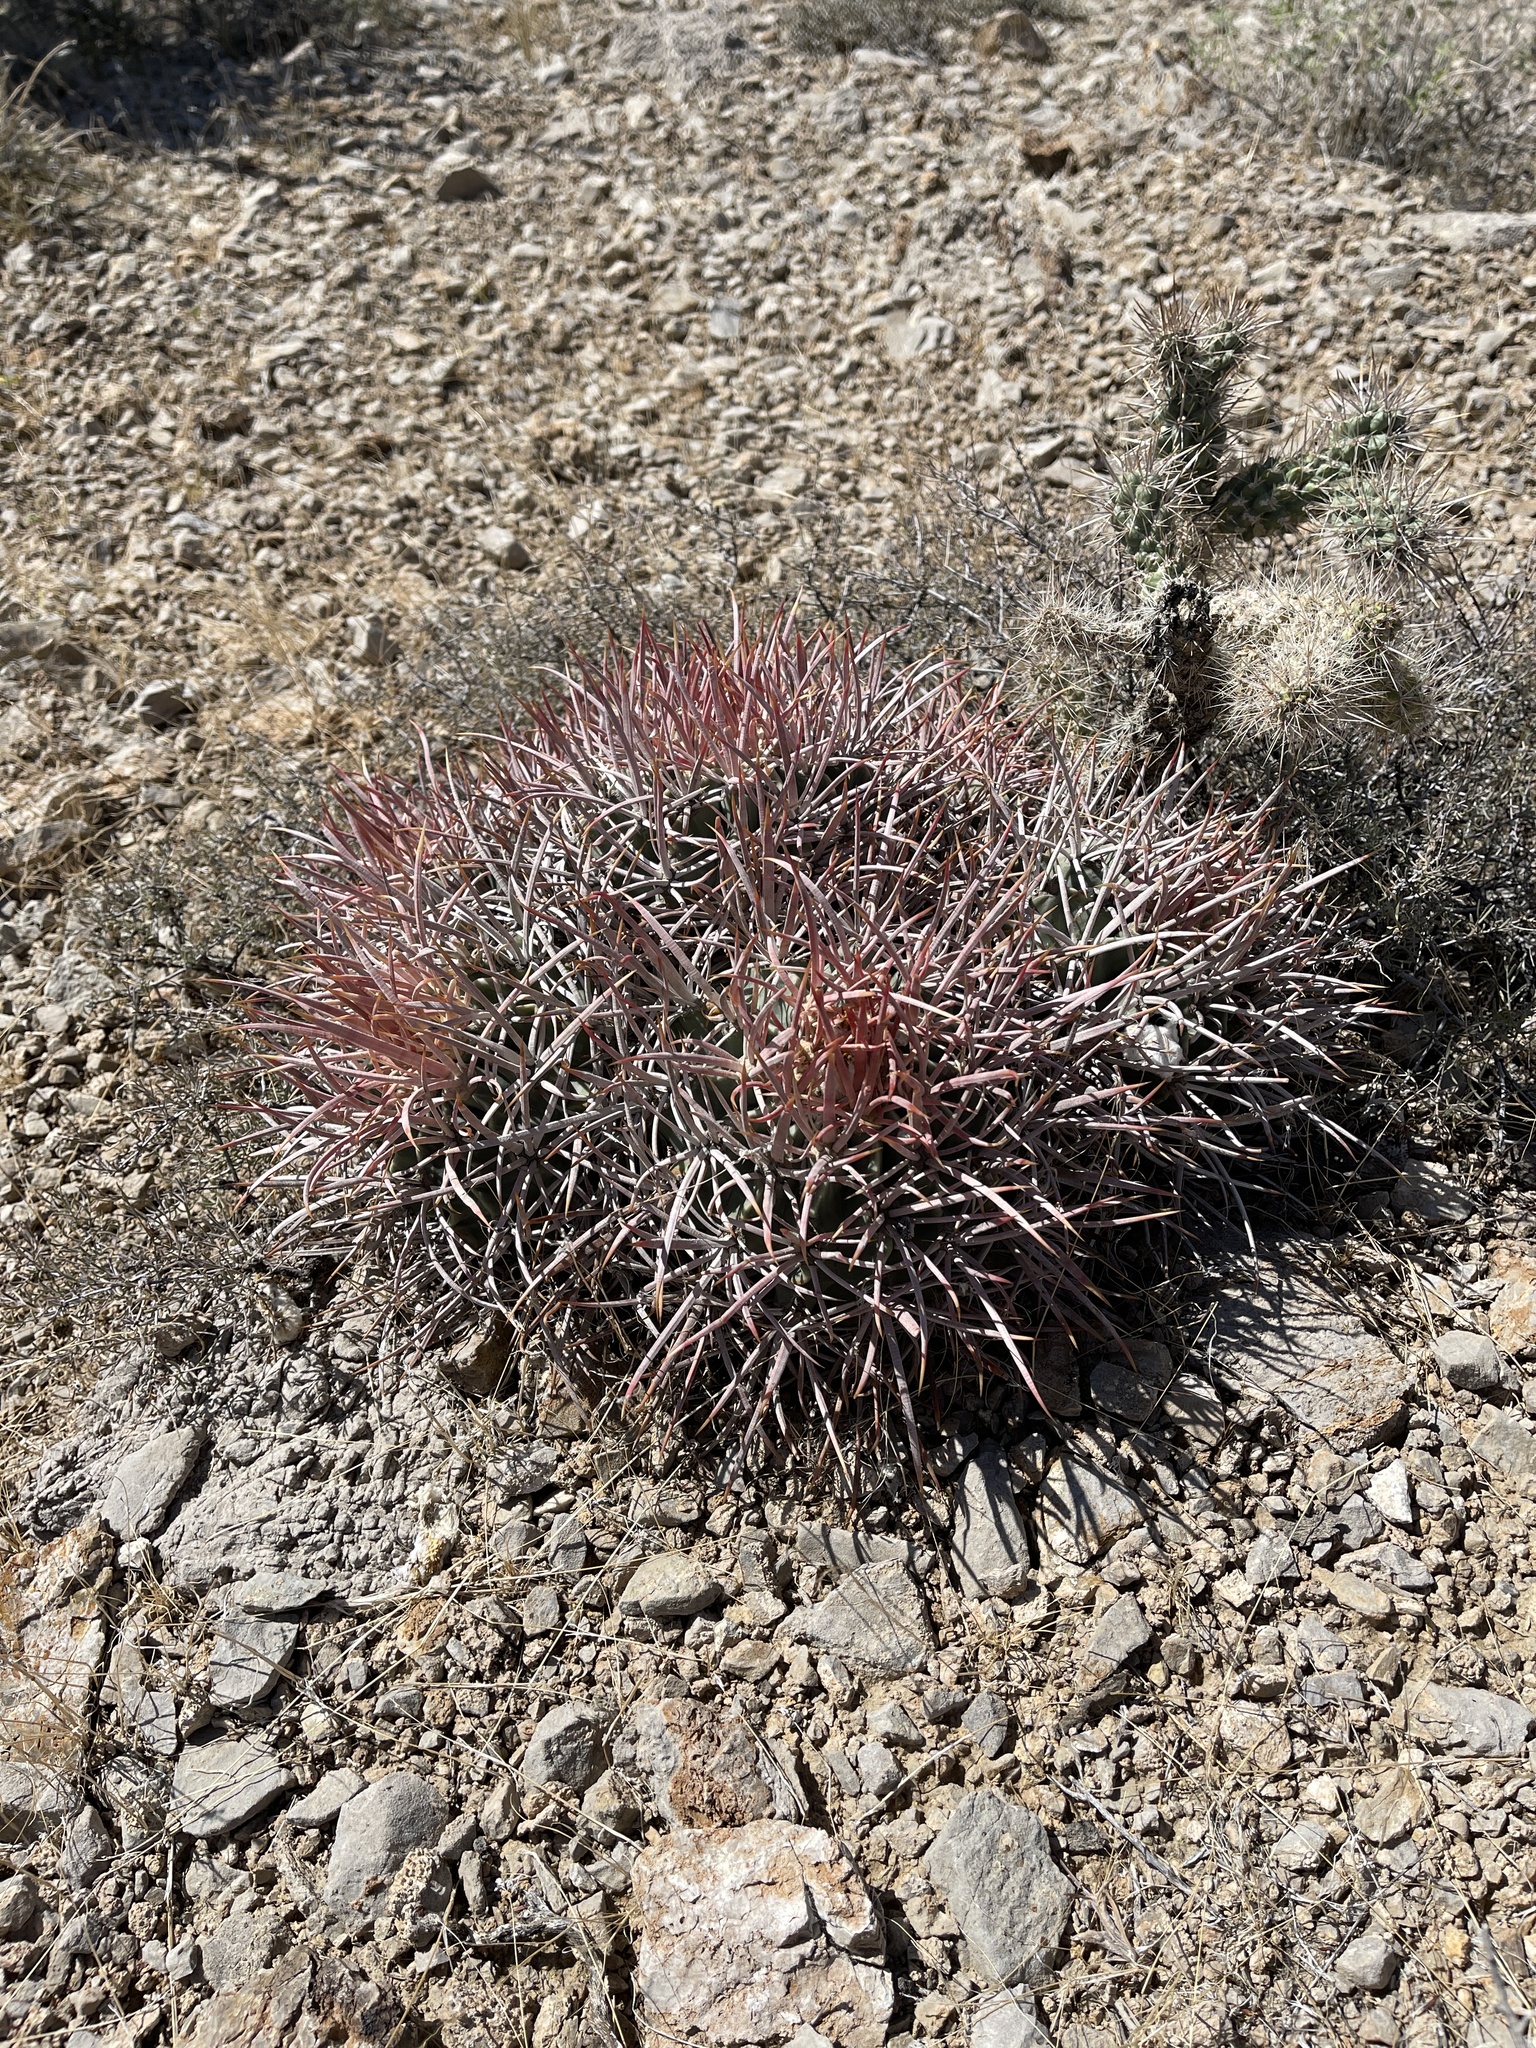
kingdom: Plantae
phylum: Tracheophyta
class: Magnoliopsida
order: Caryophyllales
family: Cactaceae
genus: Echinocactus
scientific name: Echinocactus polycephalus
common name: Cottontop cactus
